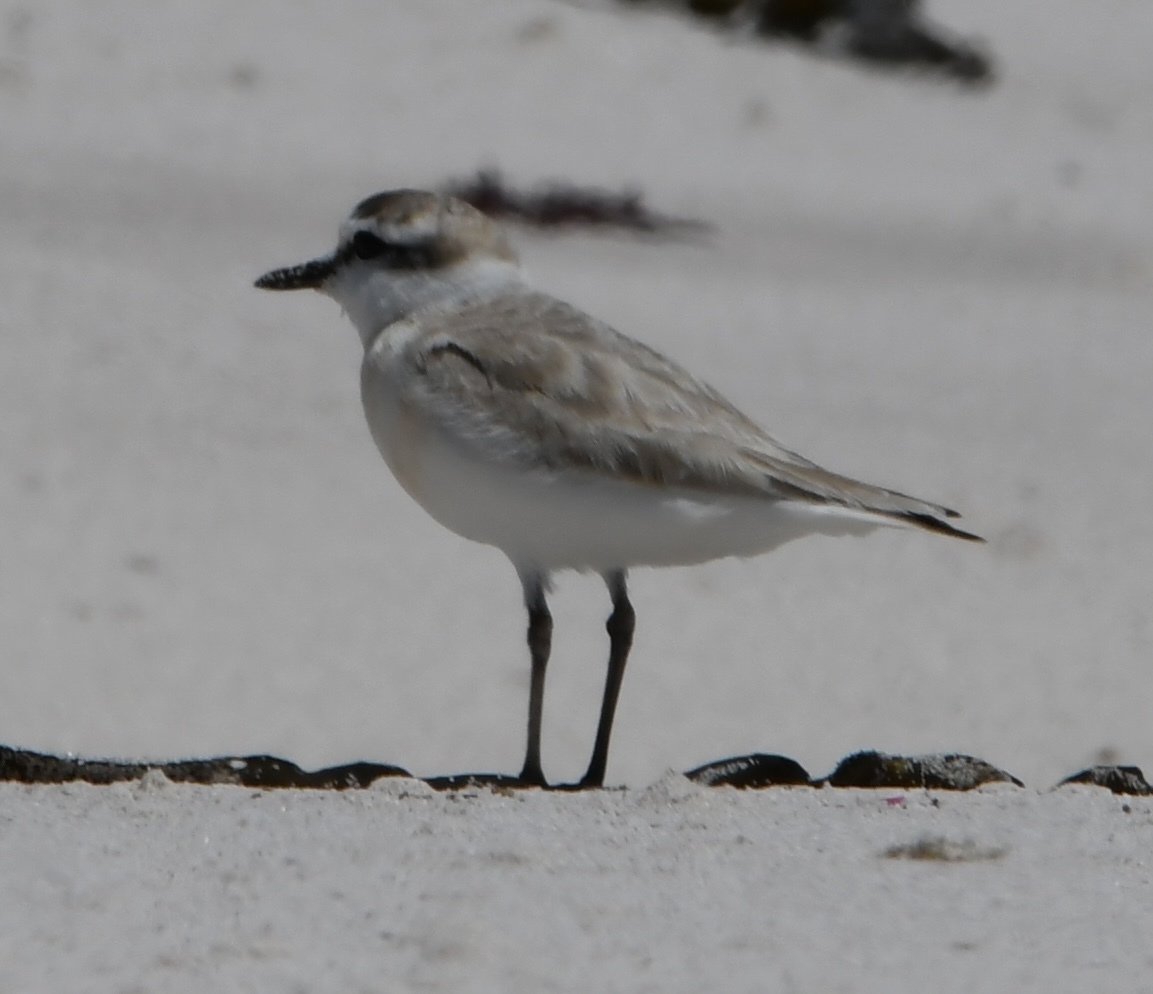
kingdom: Animalia
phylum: Chordata
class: Aves
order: Charadriiformes
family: Charadriidae
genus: Anarhynchus
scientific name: Anarhynchus
